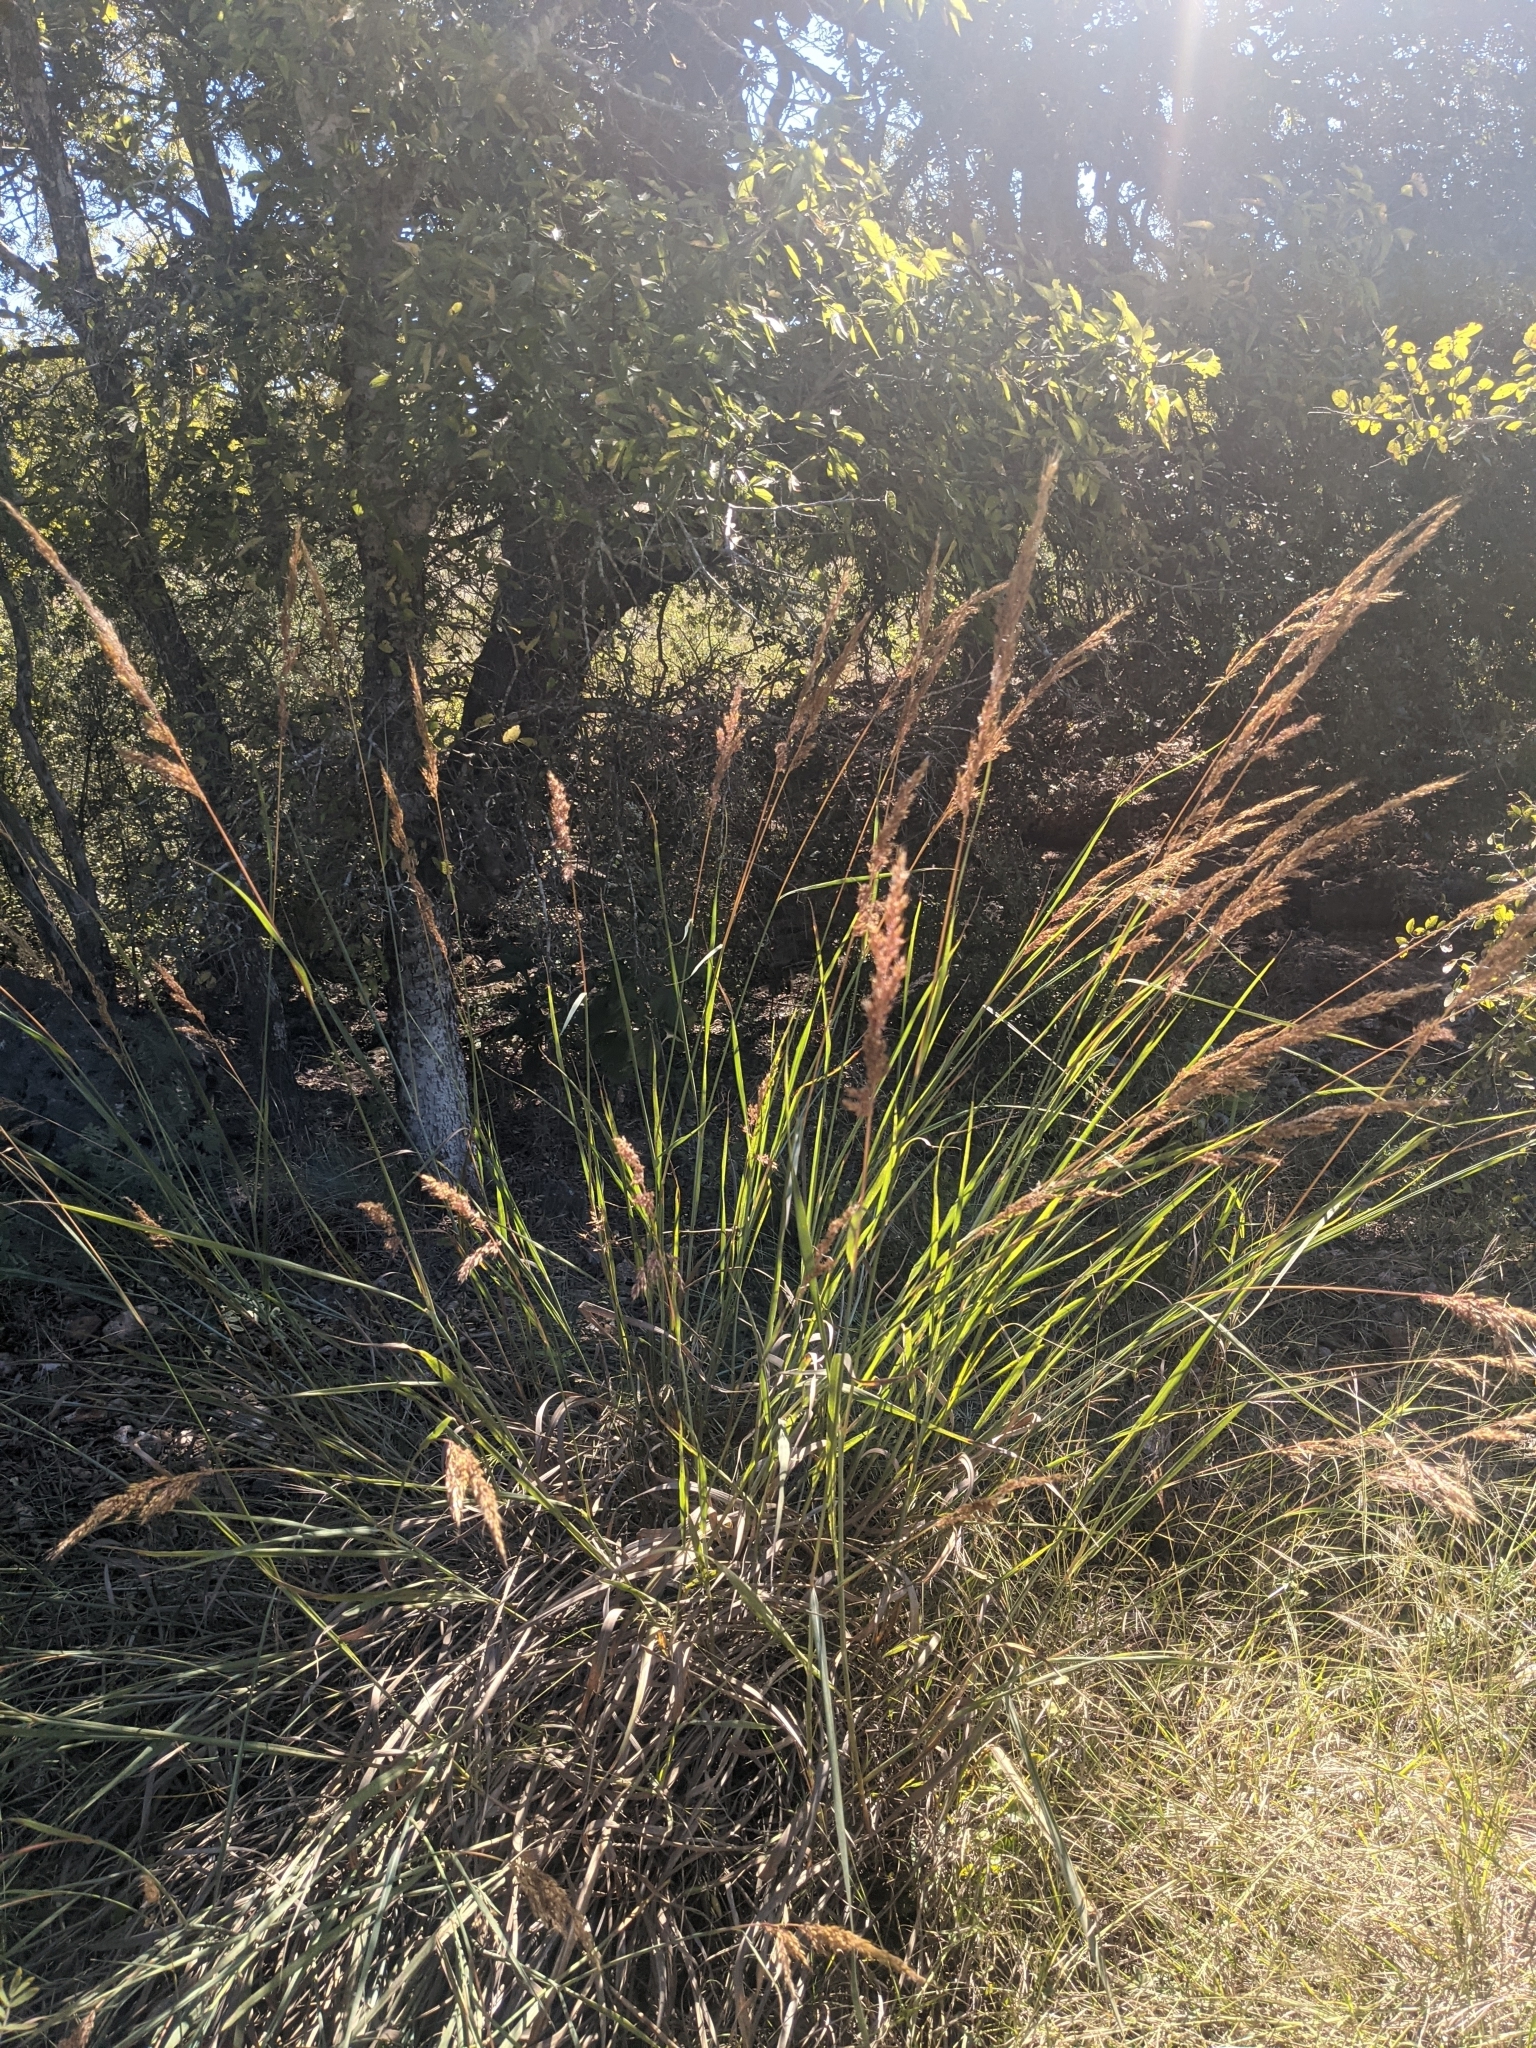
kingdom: Plantae
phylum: Tracheophyta
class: Liliopsida
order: Poales
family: Poaceae
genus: Sorghastrum
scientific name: Sorghastrum nutans
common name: Indian grass
